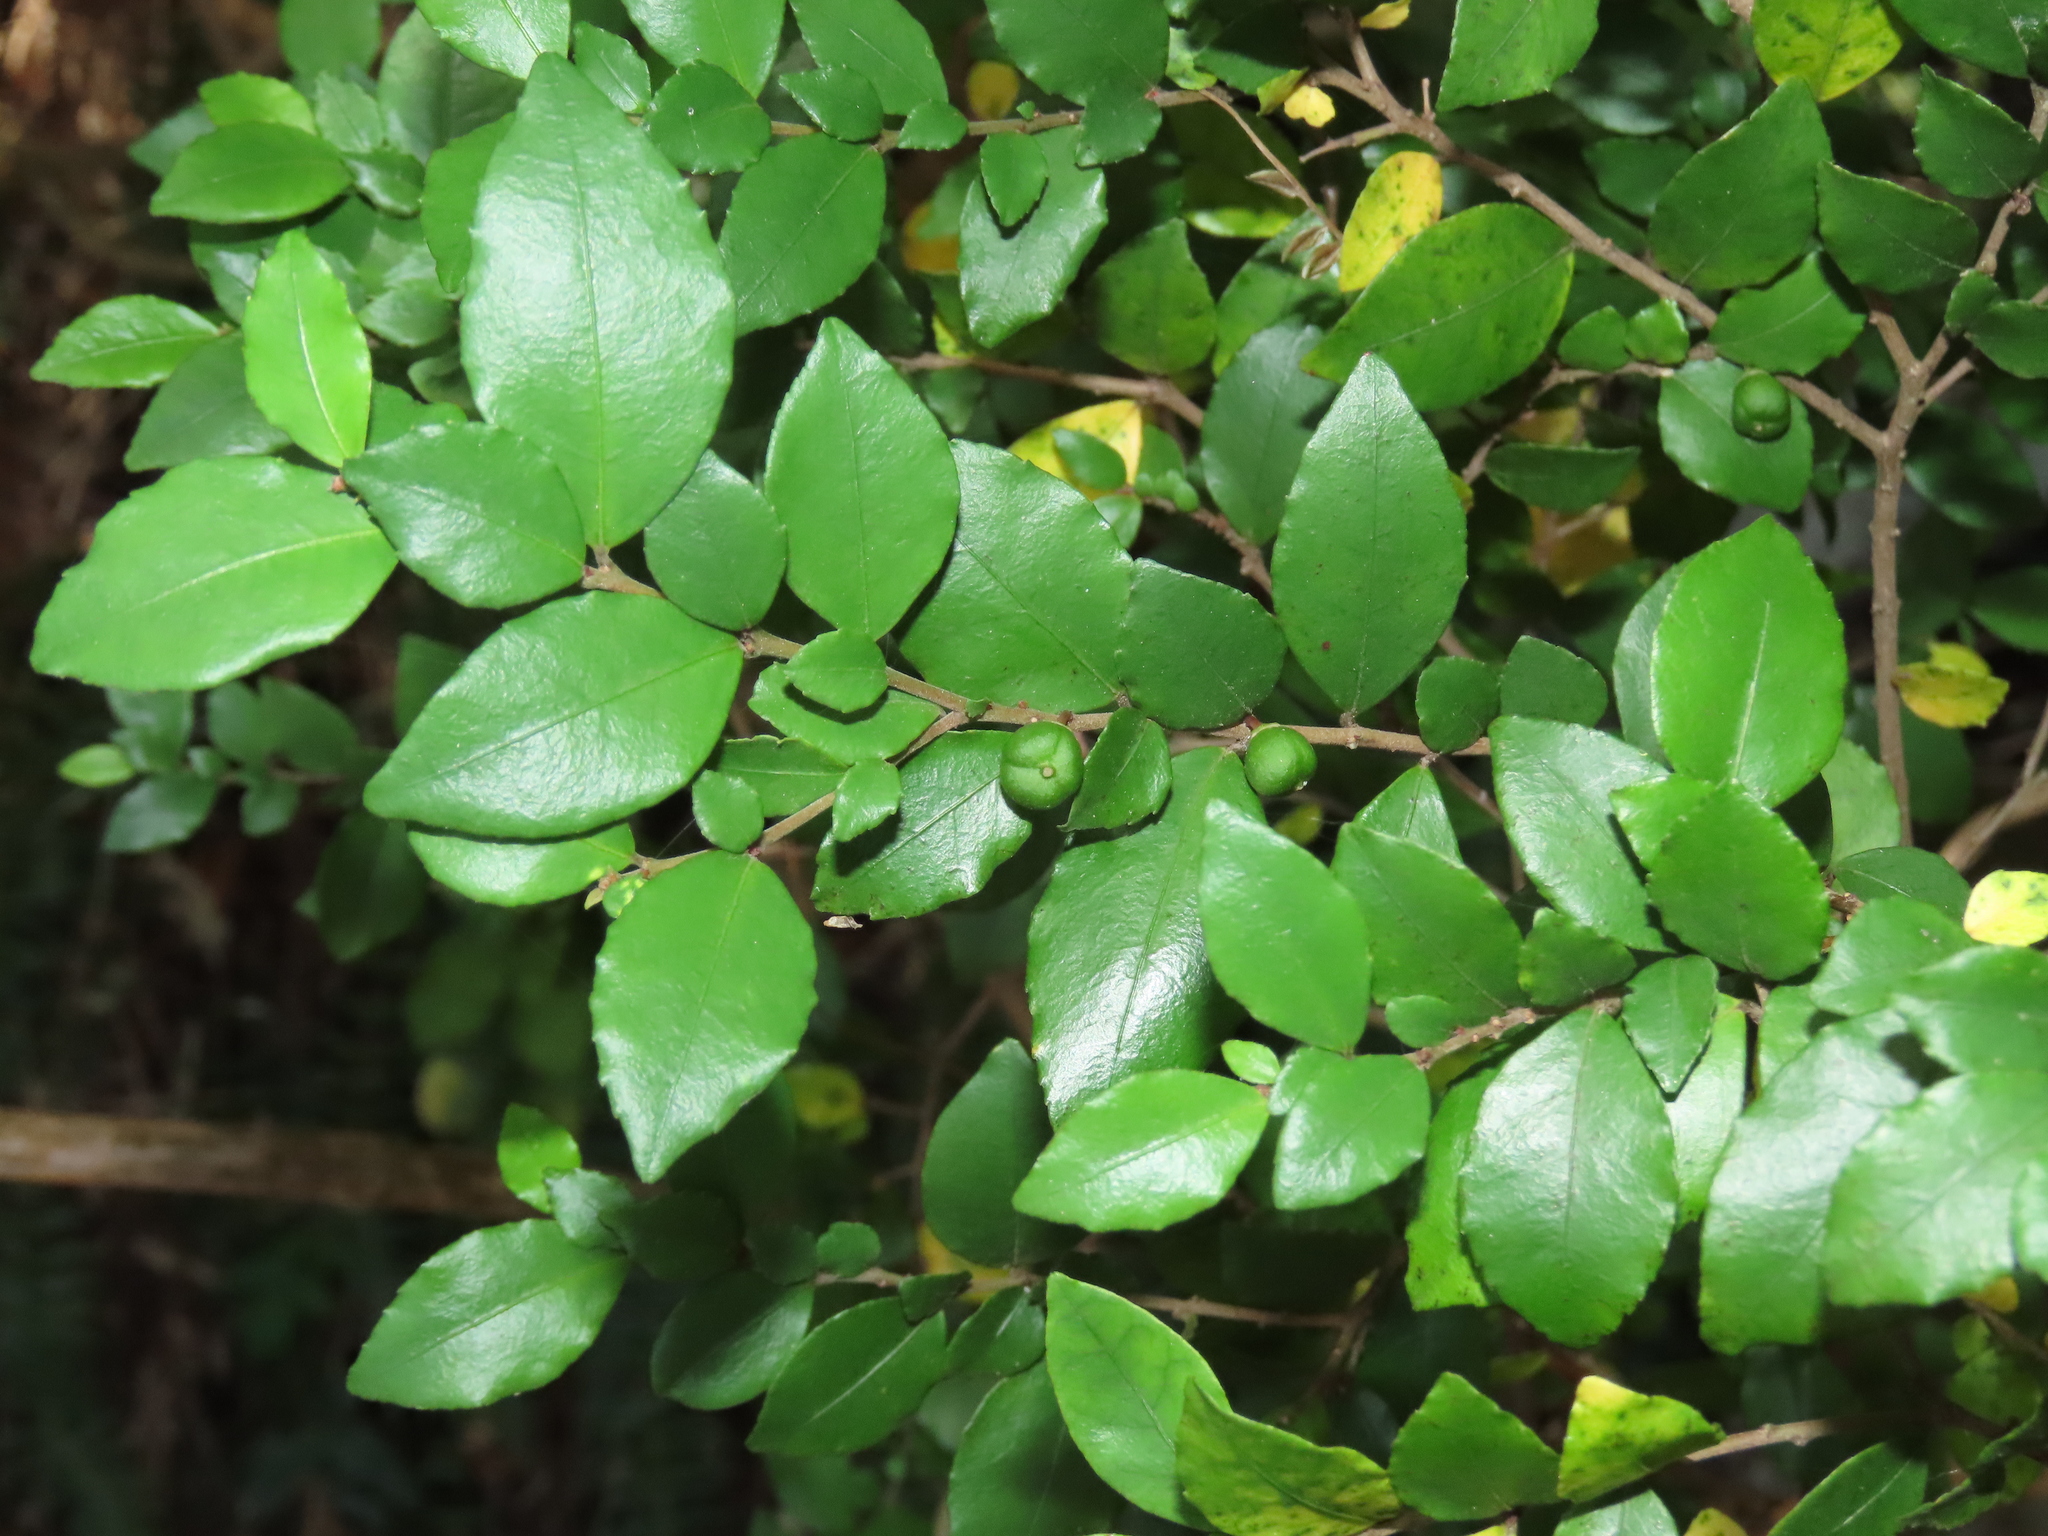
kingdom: Plantae
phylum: Tracheophyta
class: Magnoliopsida
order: Rosales
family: Rhamnaceae
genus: Condalia
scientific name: Condalia maytenoides
